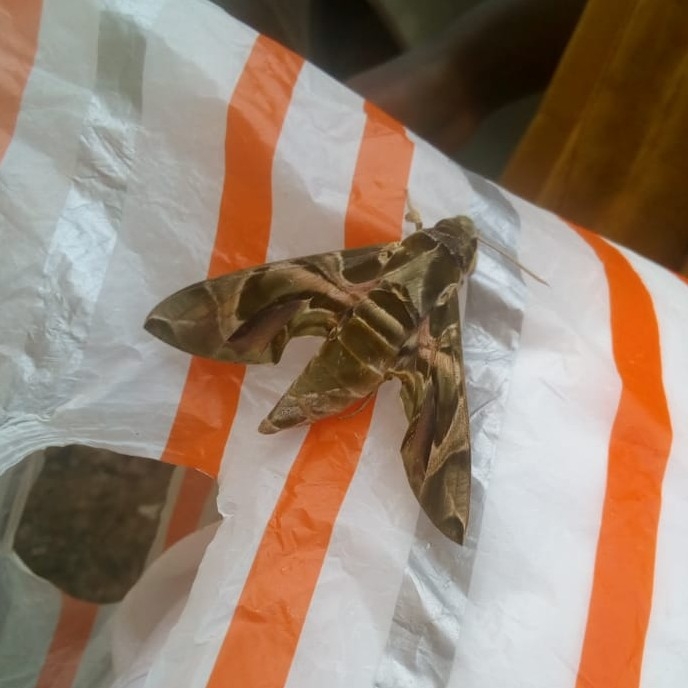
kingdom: Animalia
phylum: Arthropoda
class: Insecta
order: Lepidoptera
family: Sphingidae
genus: Daphnis
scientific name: Daphnis nerii
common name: Oleander hawk-moth
